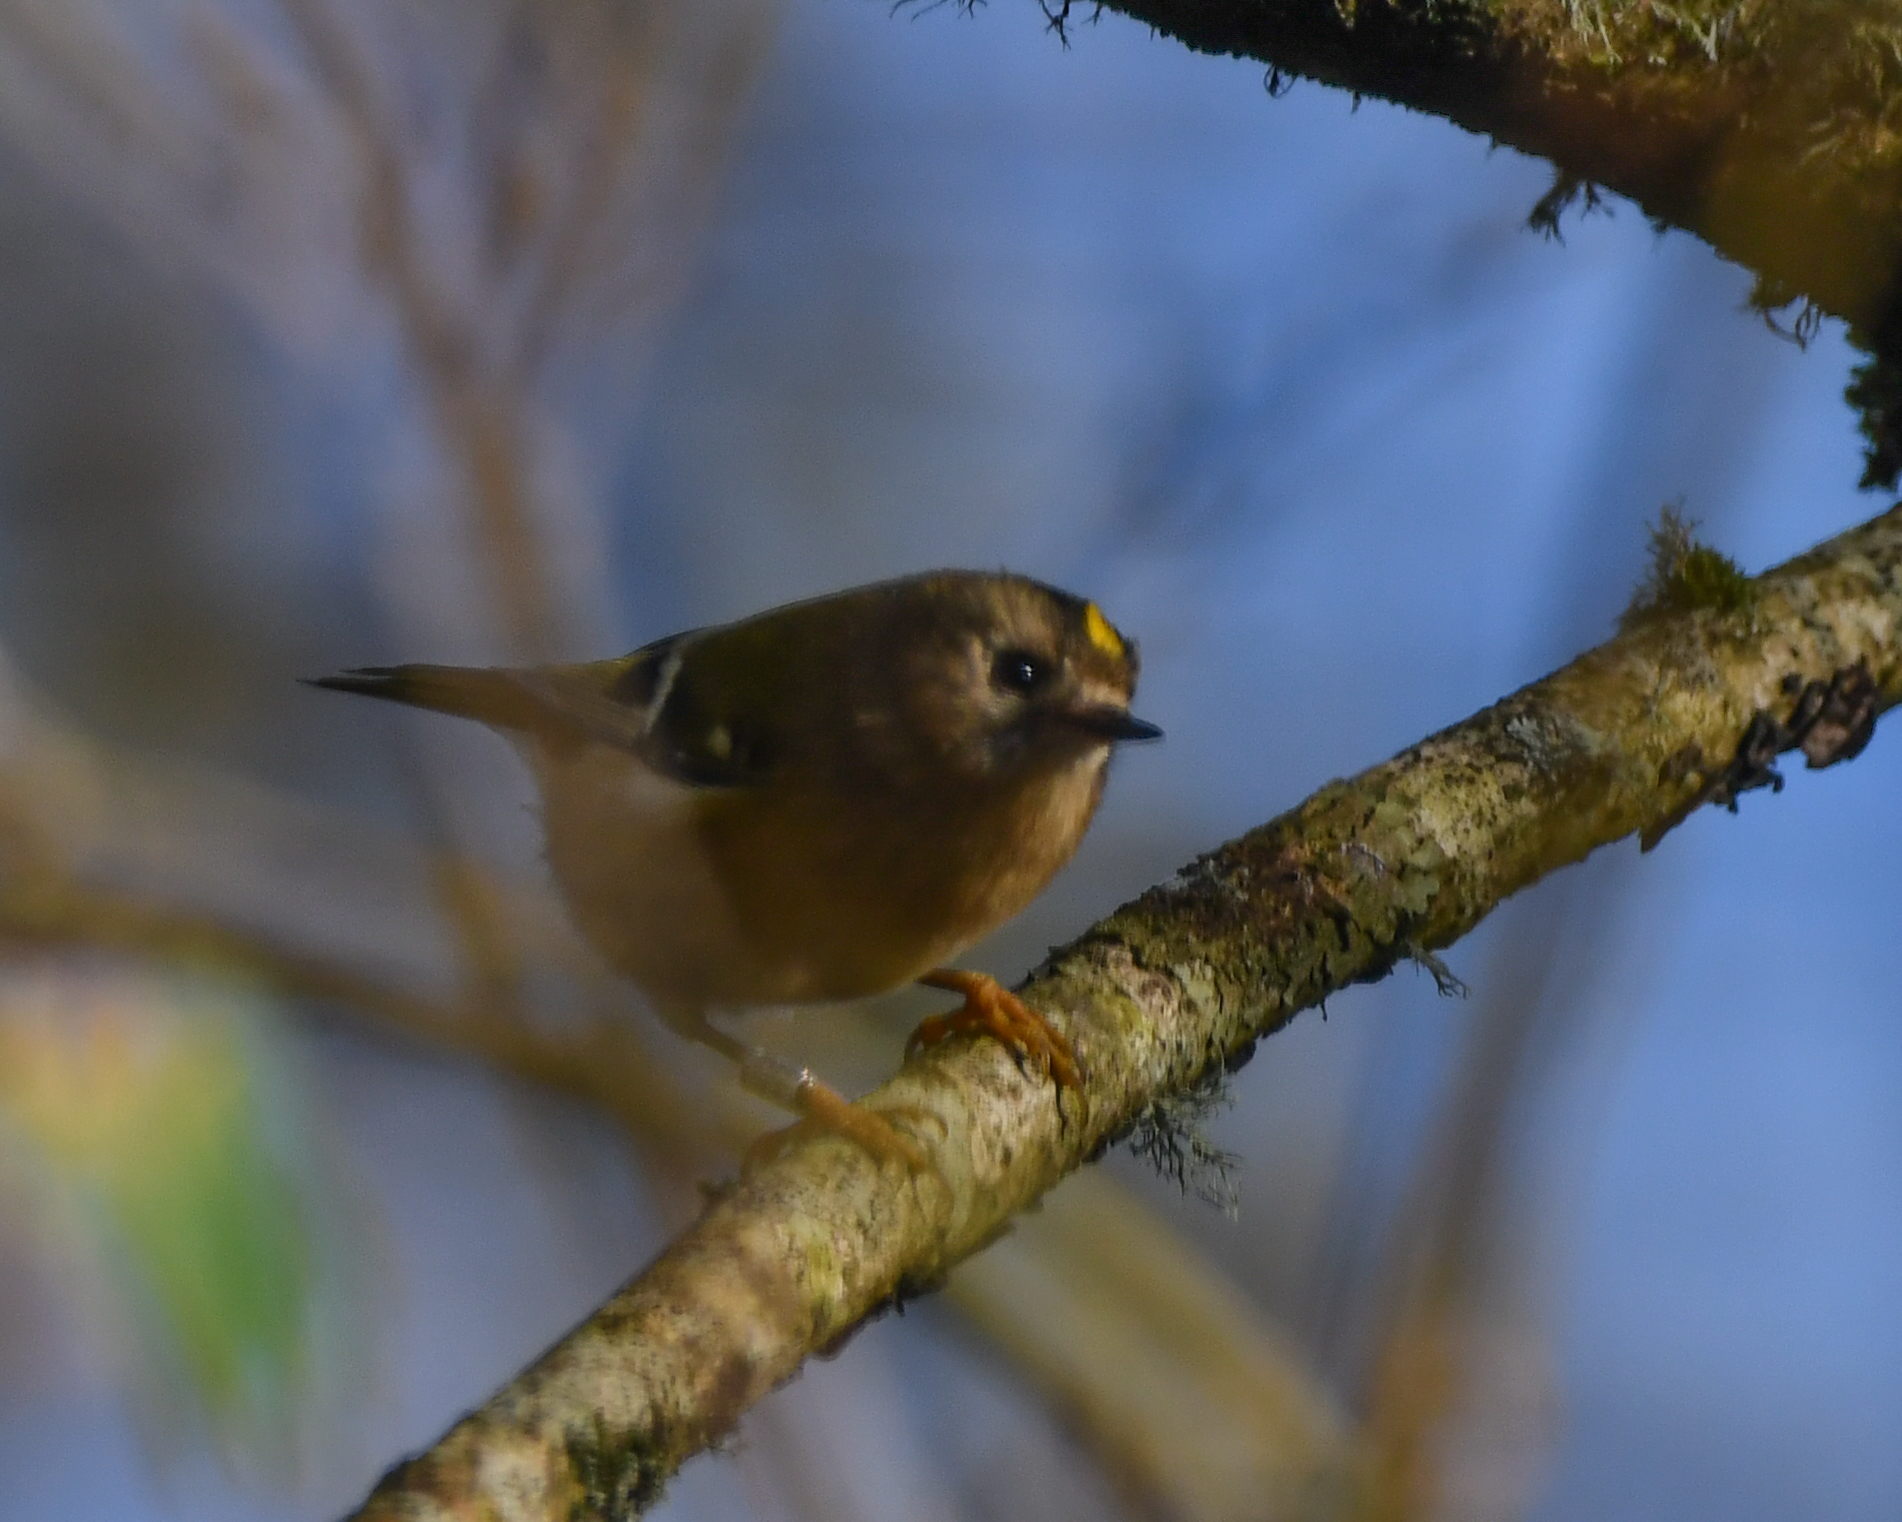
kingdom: Animalia
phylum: Chordata
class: Aves
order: Passeriformes
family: Regulidae
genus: Regulus
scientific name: Regulus regulus
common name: Goldcrest
